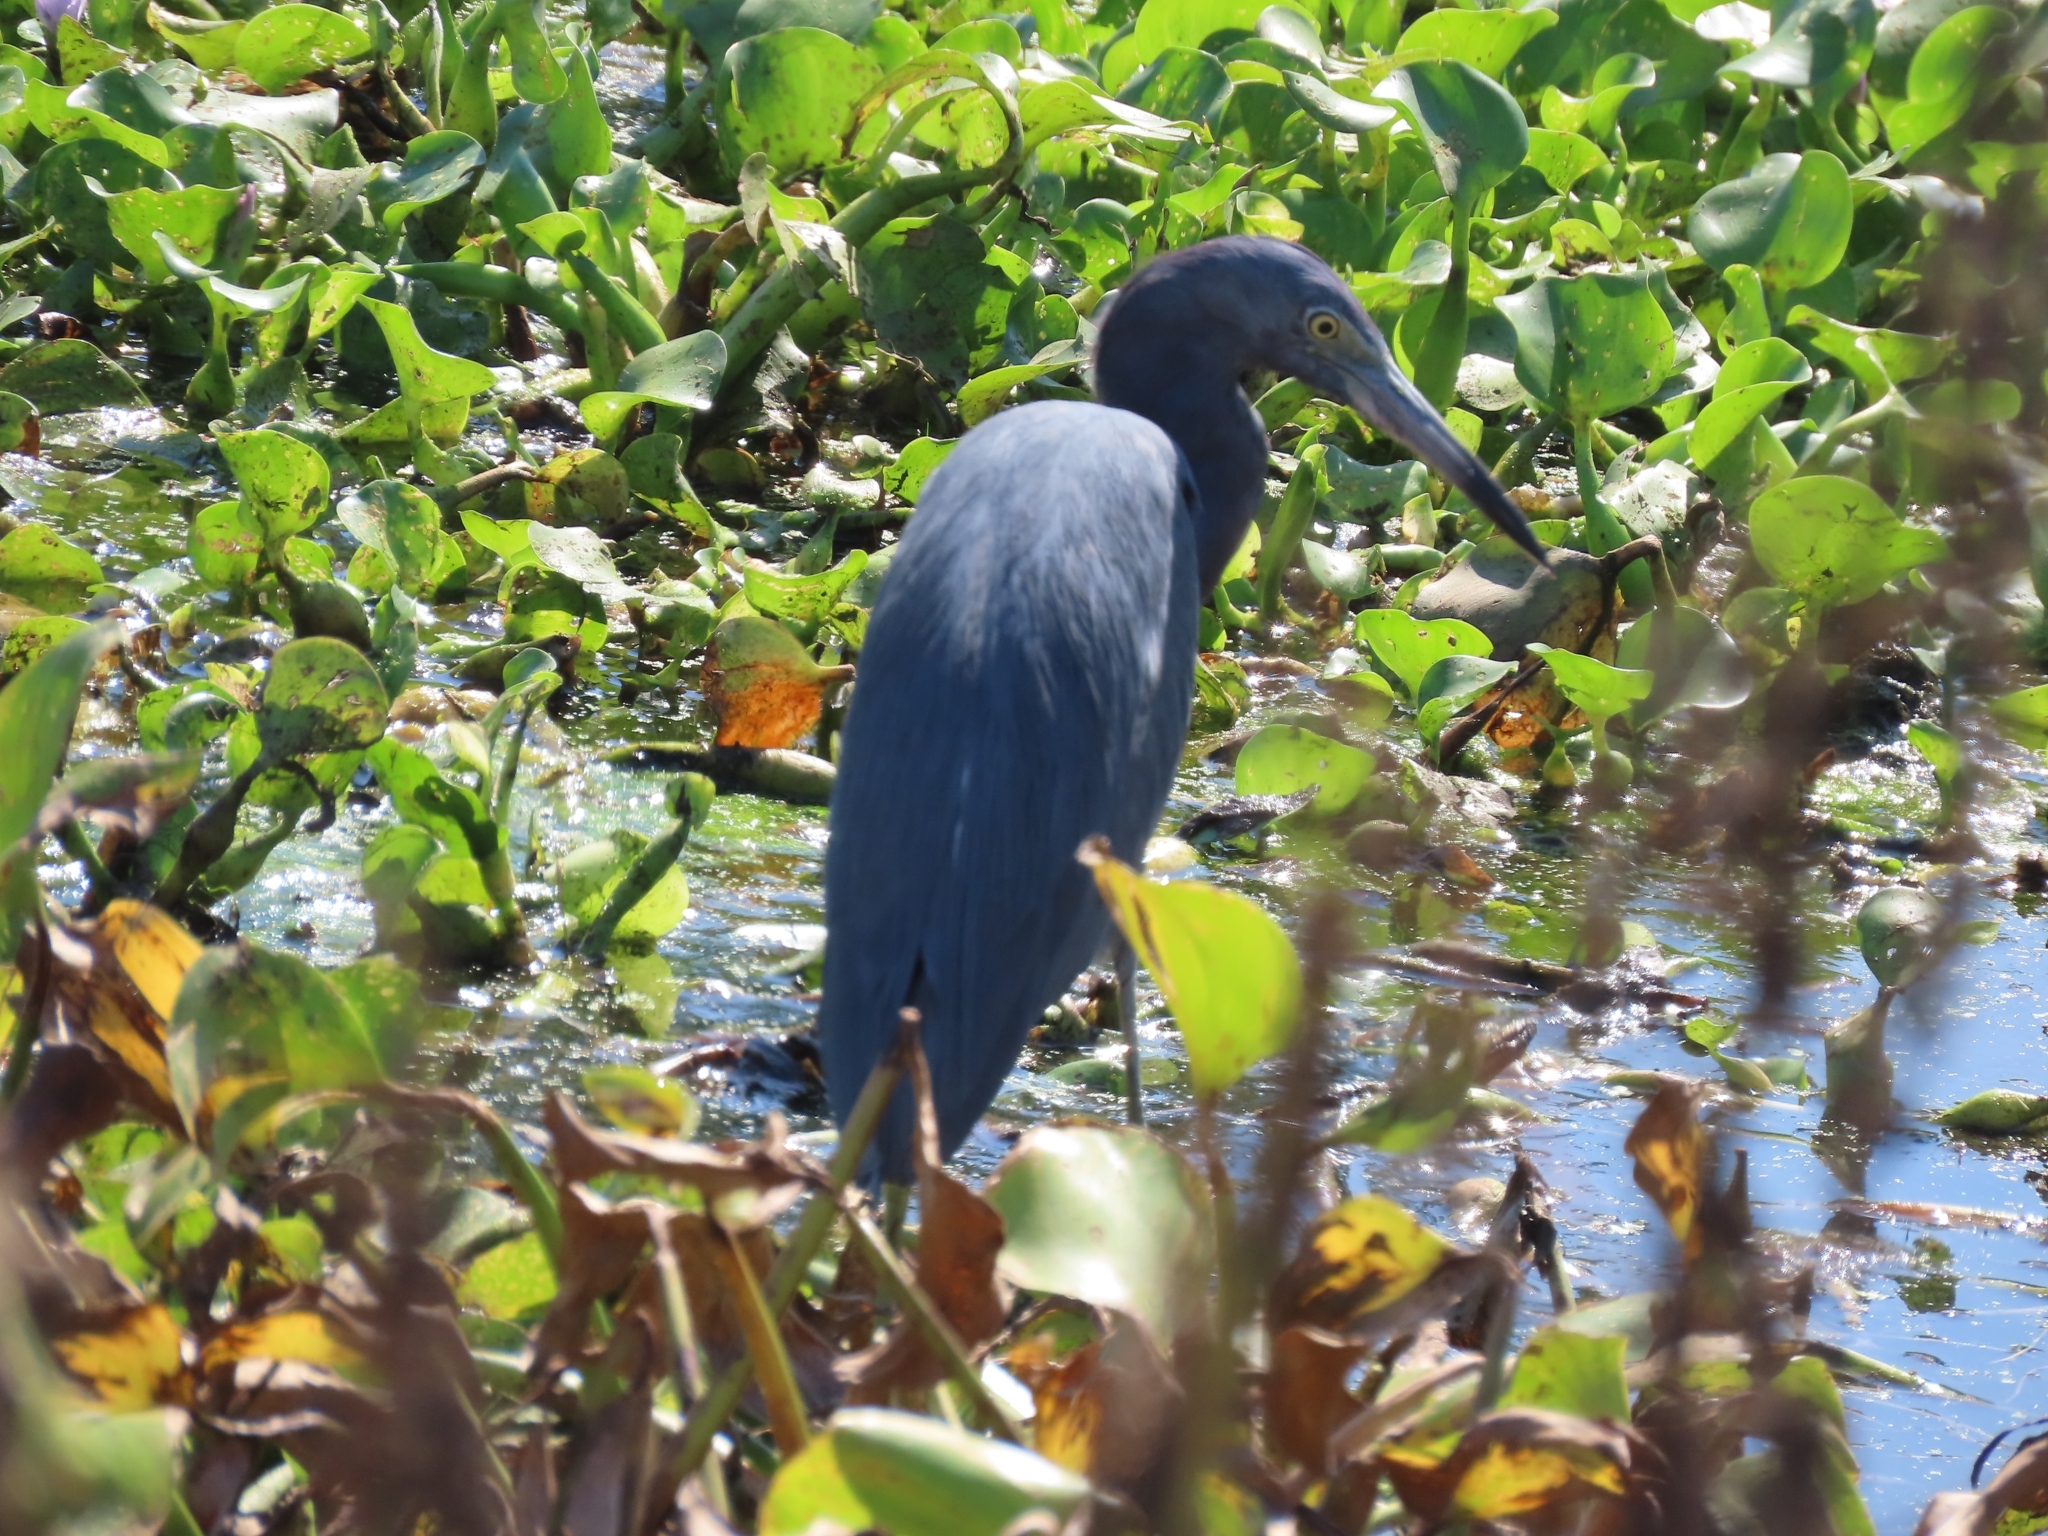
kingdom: Animalia
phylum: Chordata
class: Aves
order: Pelecaniformes
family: Ardeidae
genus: Egretta
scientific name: Egretta caerulea
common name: Little blue heron
